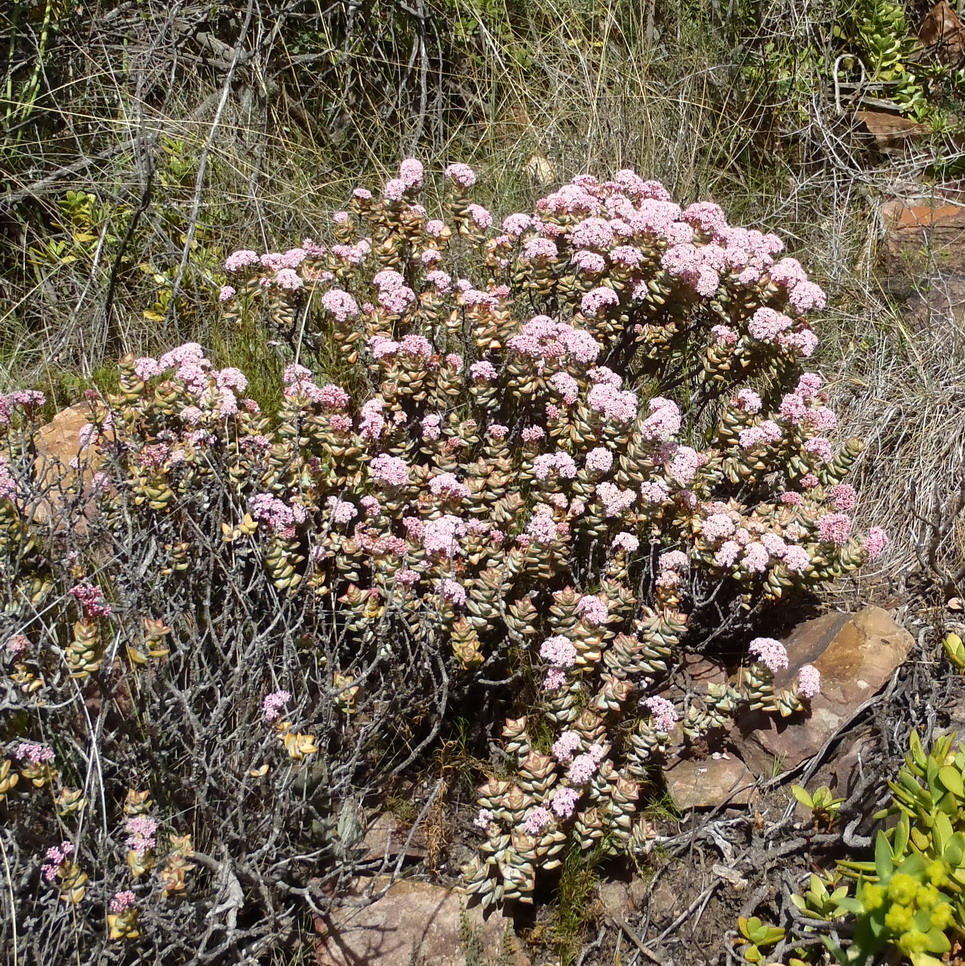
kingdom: Plantae
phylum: Tracheophyta
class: Magnoliopsida
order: Saxifragales
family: Crassulaceae
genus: Crassula
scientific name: Crassula rupestris
